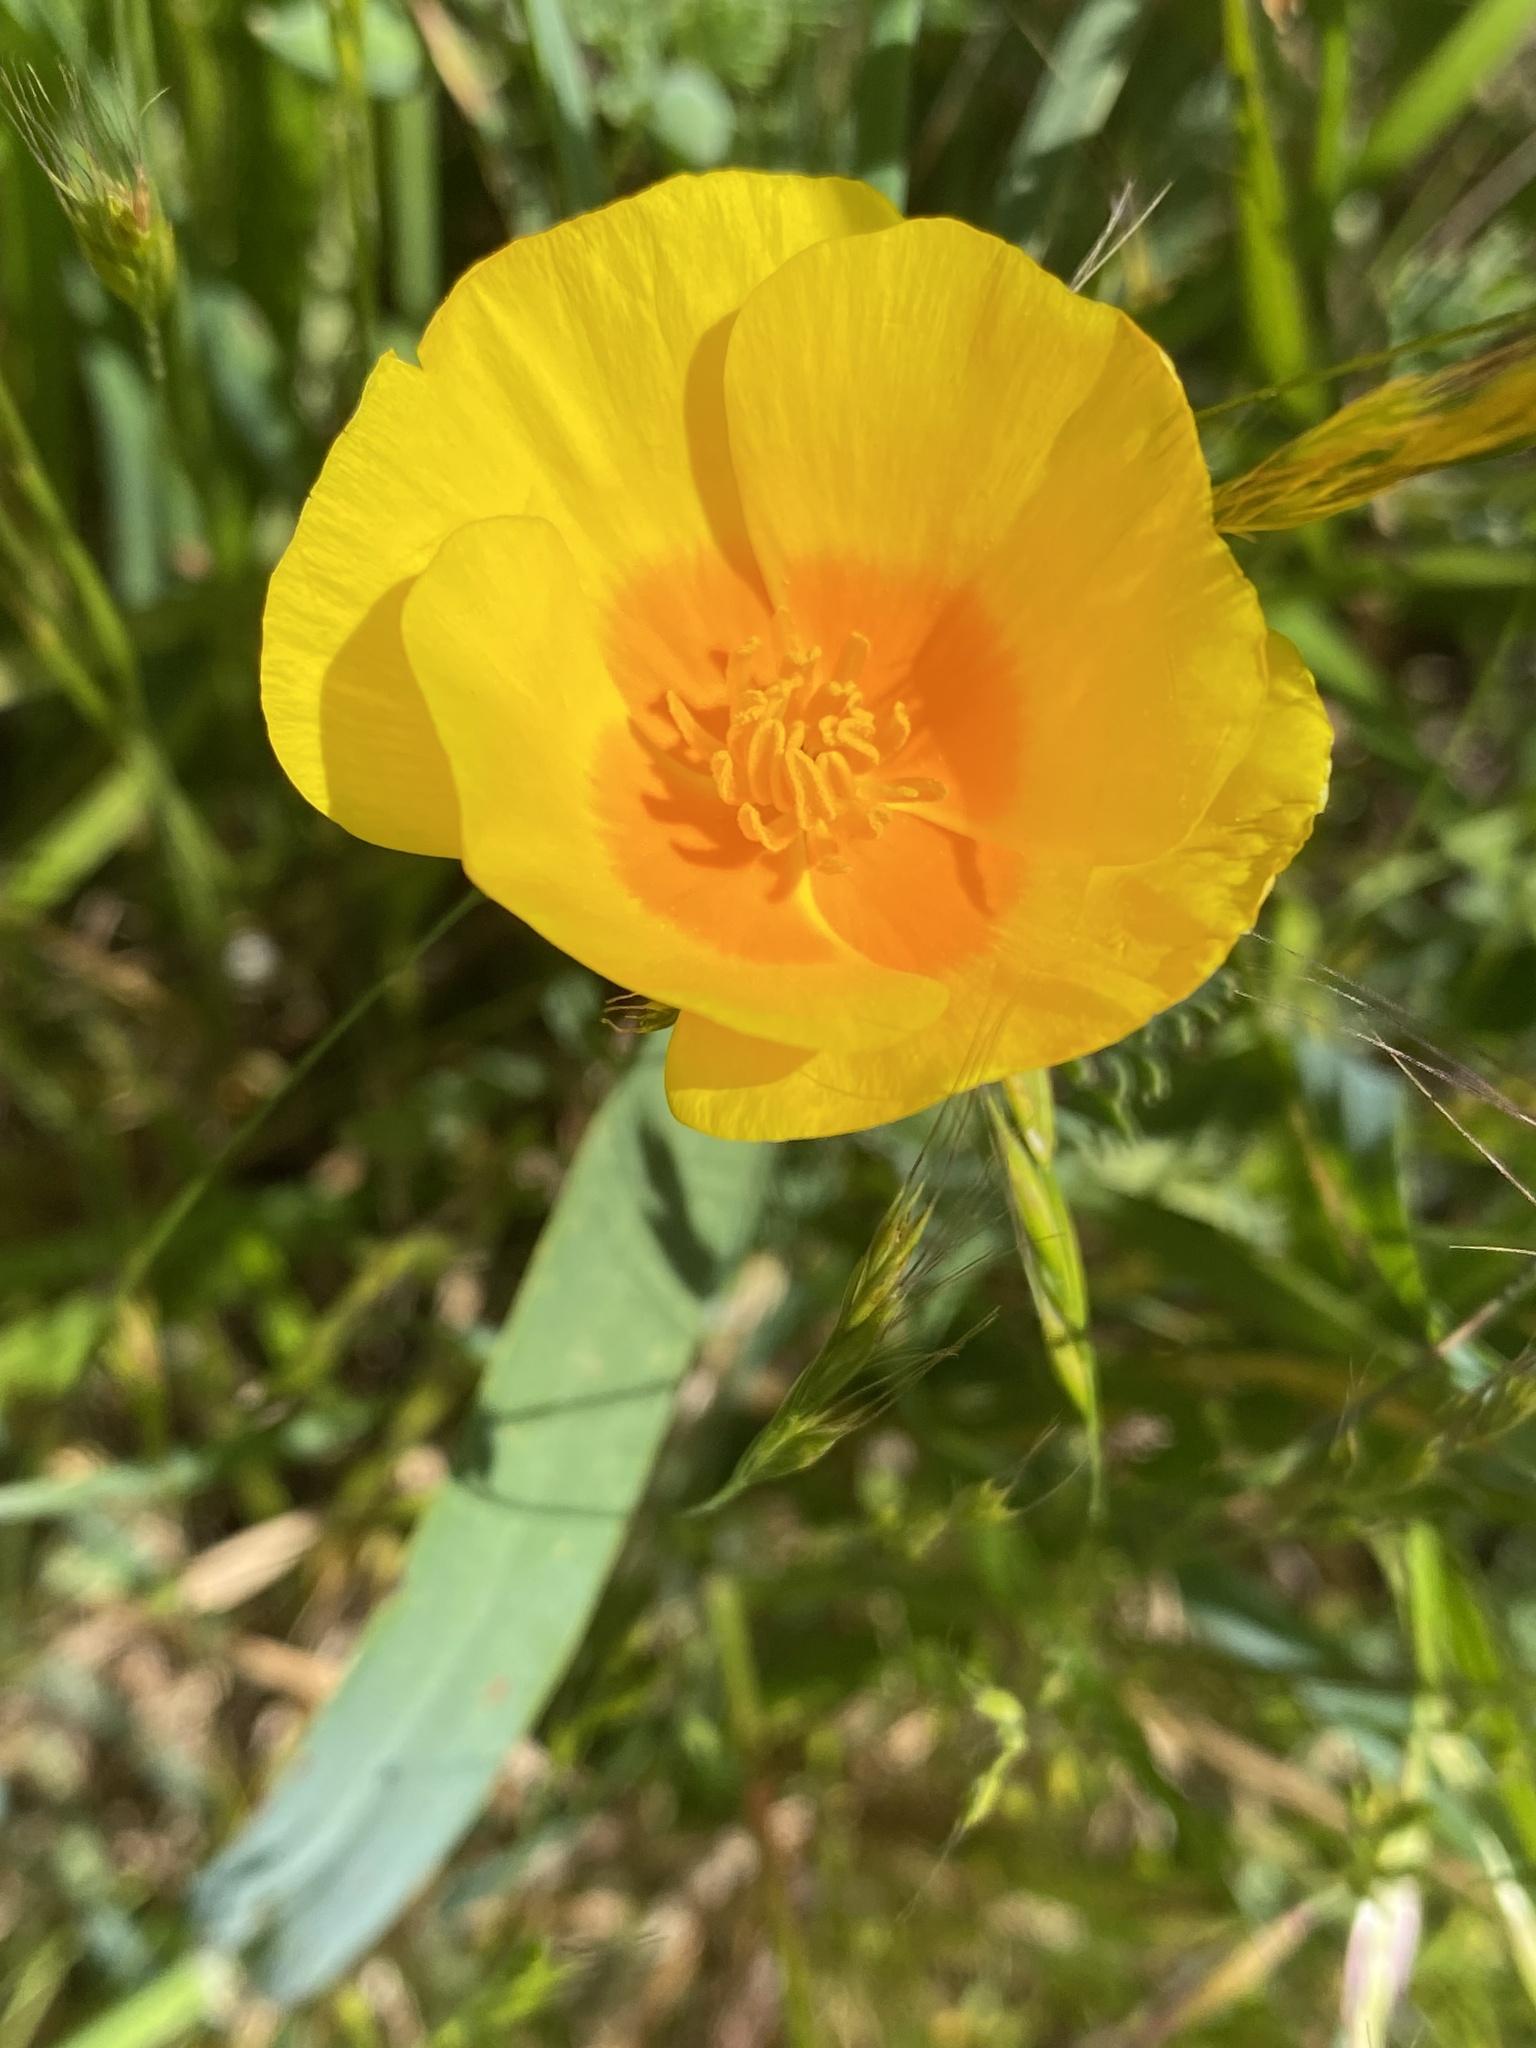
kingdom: Plantae
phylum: Tracheophyta
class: Magnoliopsida
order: Ranunculales
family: Papaveraceae
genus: Eschscholzia
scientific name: Eschscholzia californica
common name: California poppy
